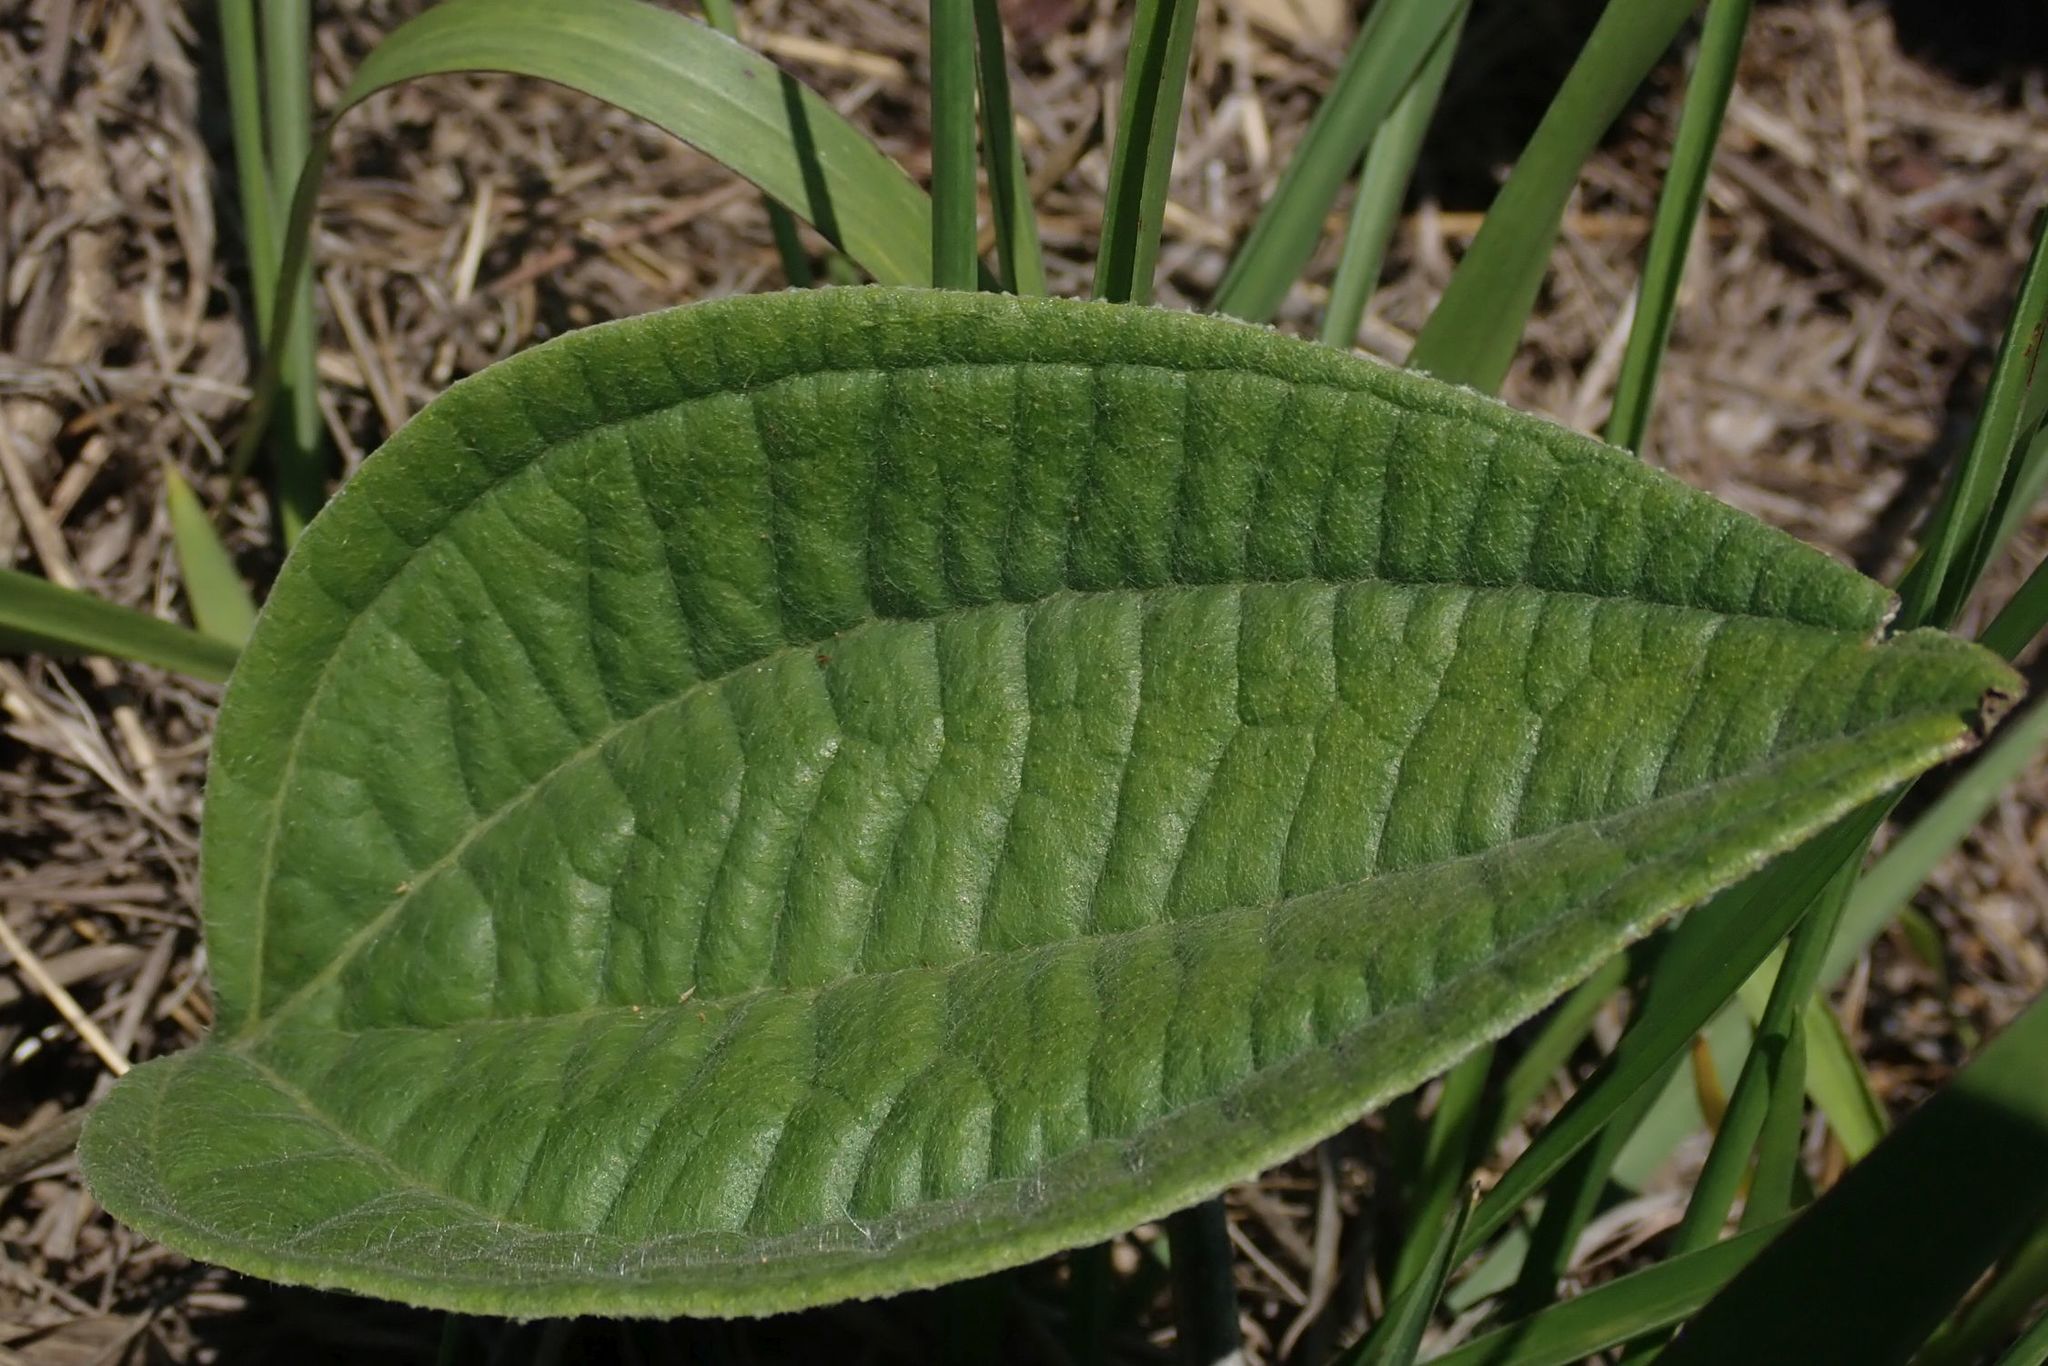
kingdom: Plantae
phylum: Tracheophyta
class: Magnoliopsida
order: Asterales
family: Asteraceae
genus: Helichrysum
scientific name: Helichrysum nudifolium
